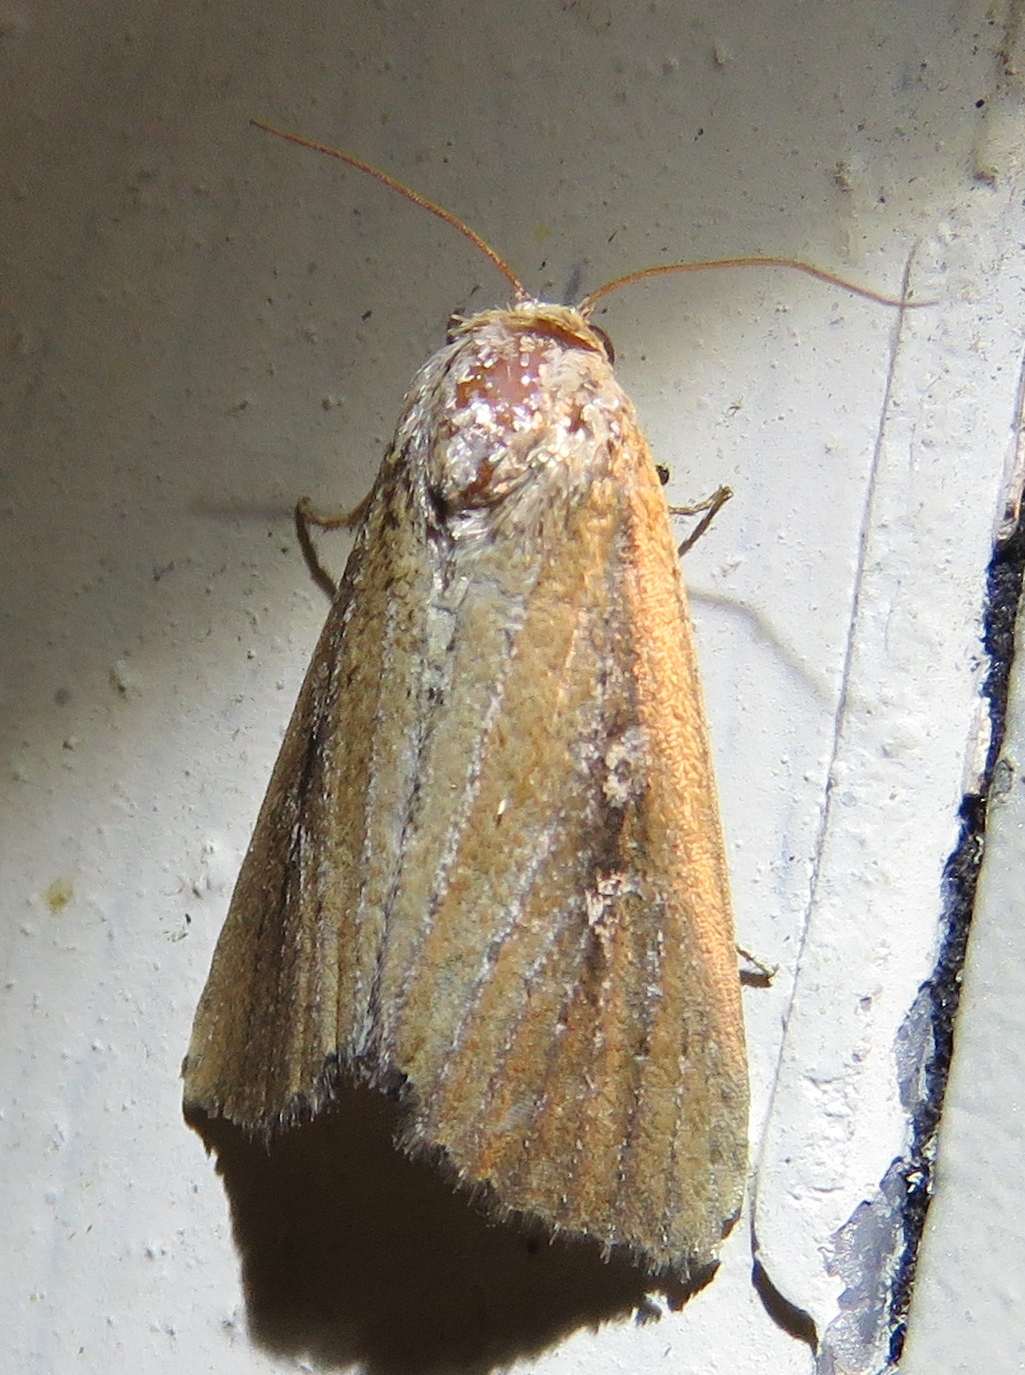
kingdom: Animalia
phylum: Arthropoda
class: Insecta
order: Lepidoptera
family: Noctuidae
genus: Condica
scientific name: Condica videns
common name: White-dotted groundling
